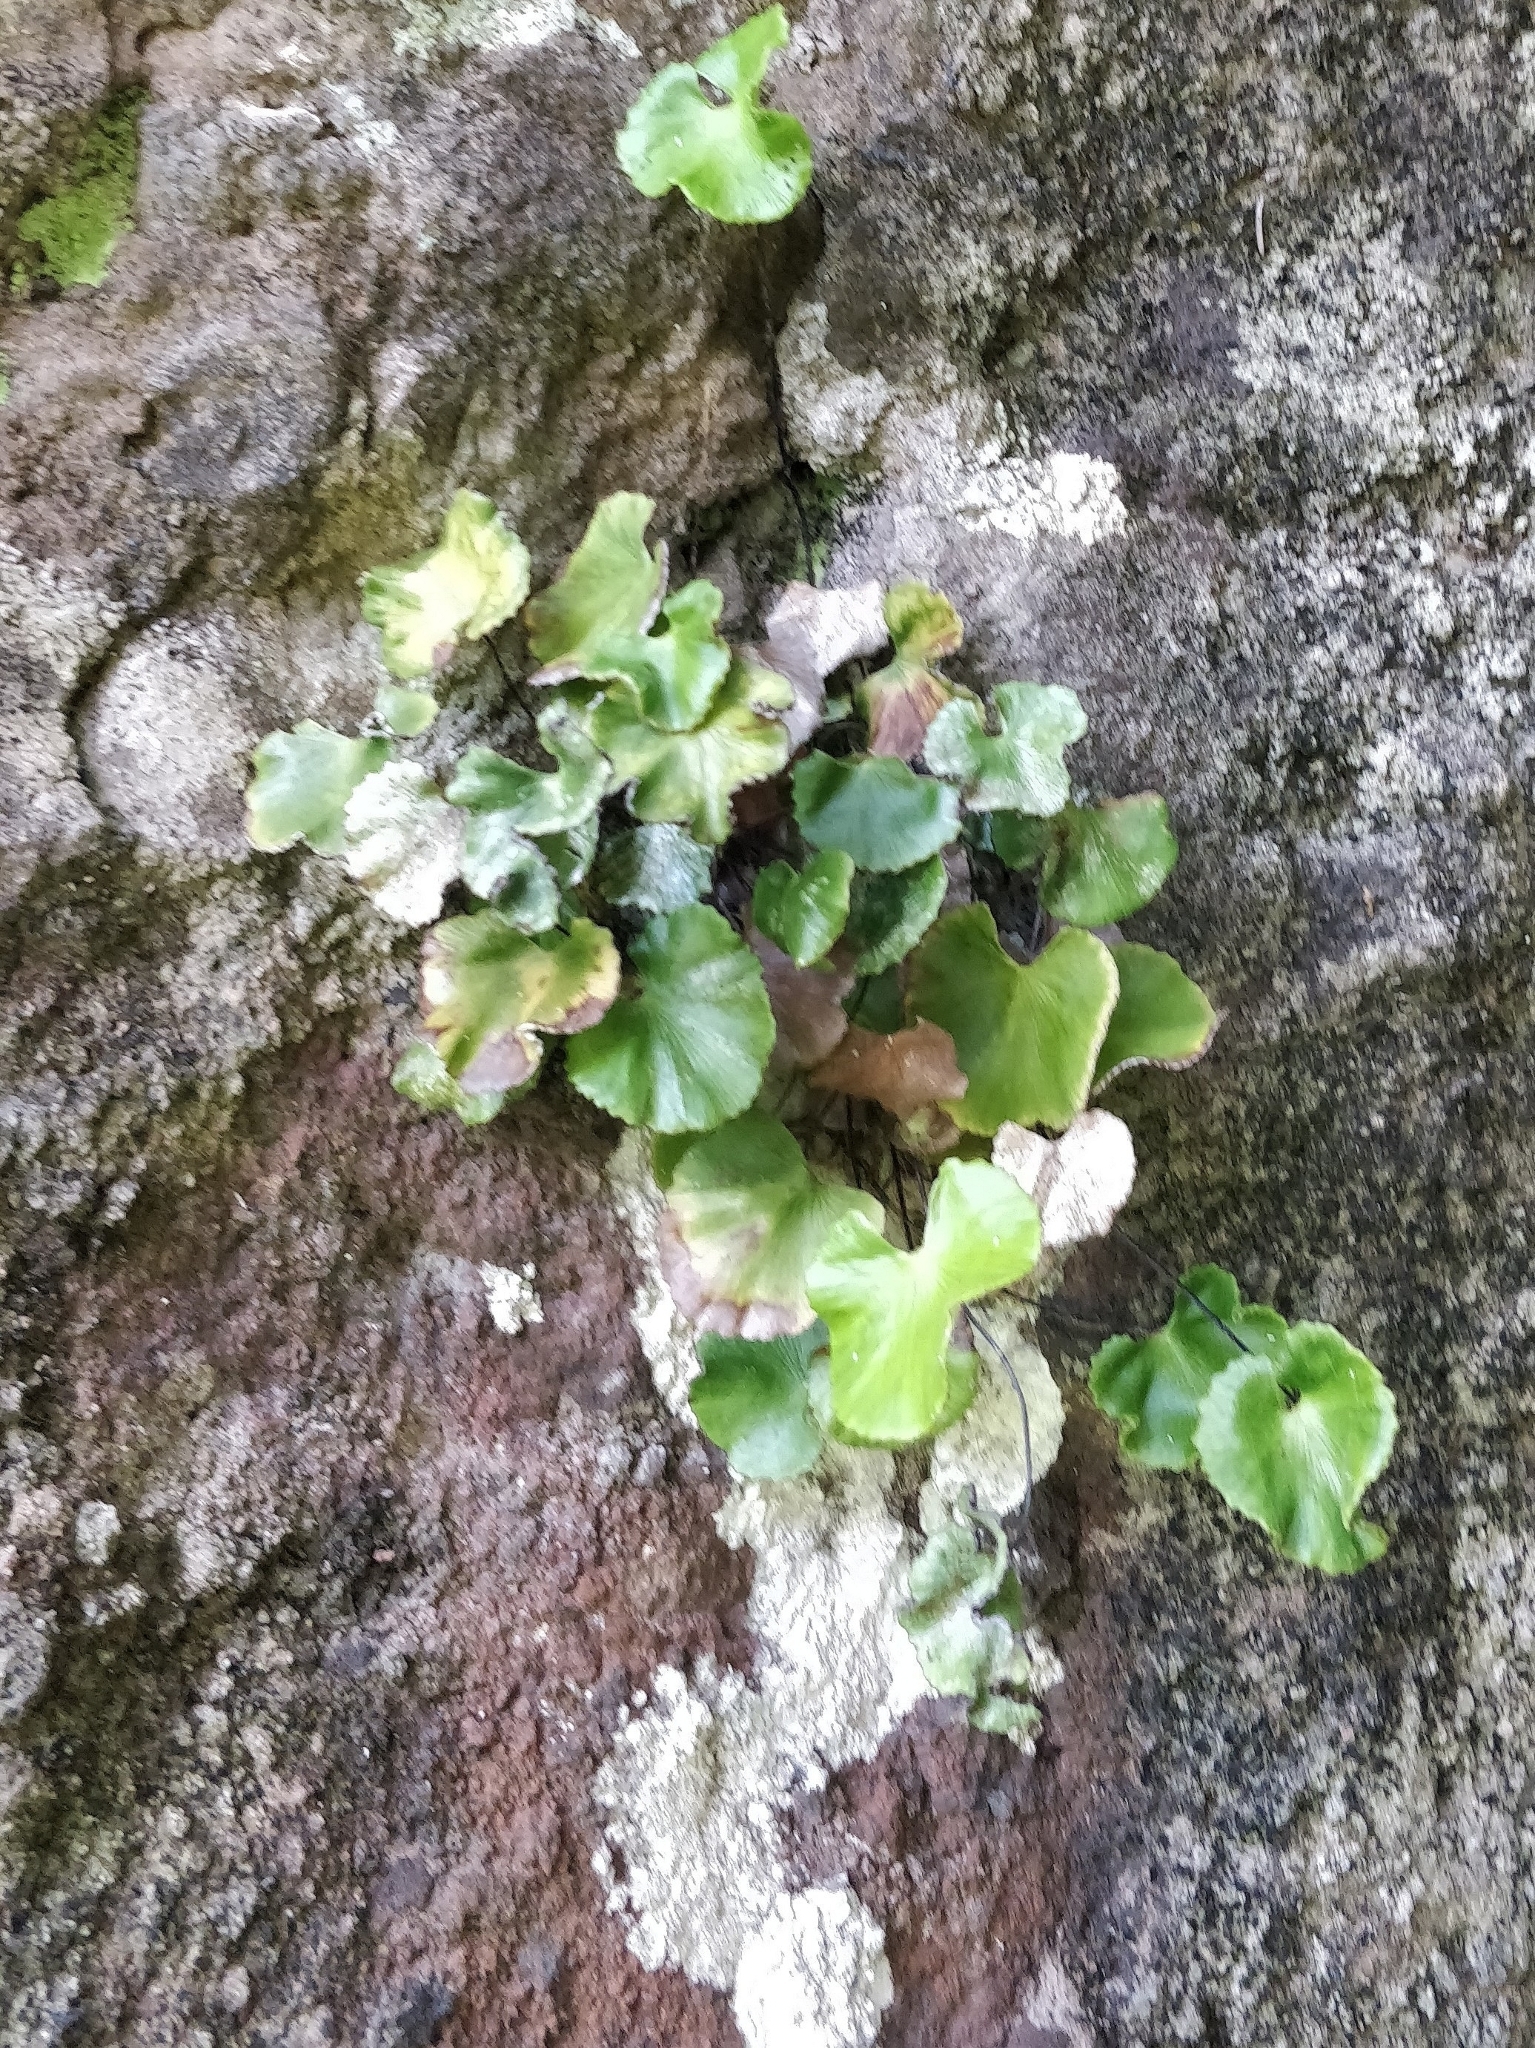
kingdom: Plantae
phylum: Tracheophyta
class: Polypodiopsida
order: Polypodiales
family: Pteridaceae
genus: Adiantum
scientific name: Adiantum reniforme
